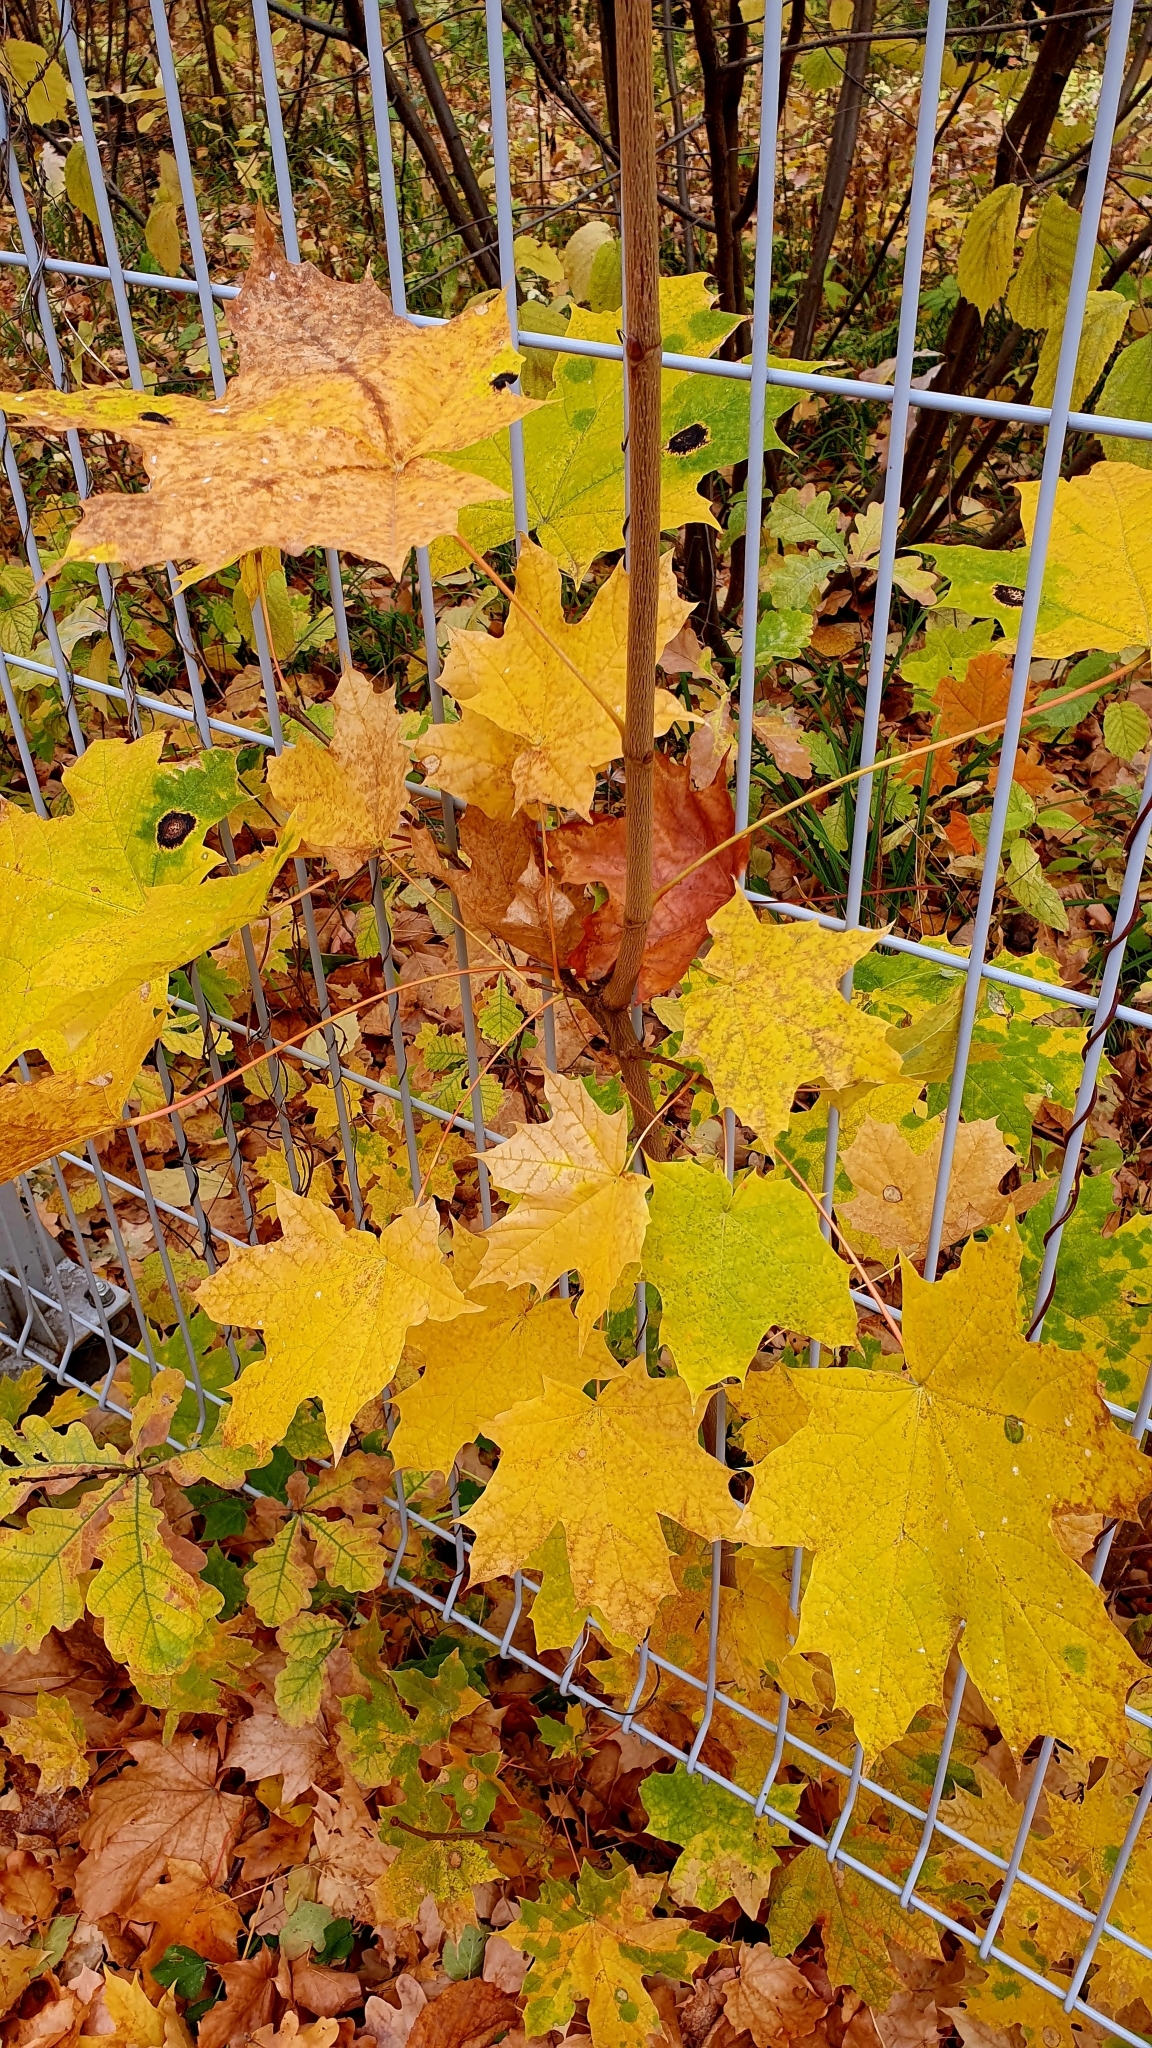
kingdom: Plantae
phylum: Tracheophyta
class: Magnoliopsida
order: Sapindales
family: Sapindaceae
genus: Acer
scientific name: Acer platanoides
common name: Norway maple
